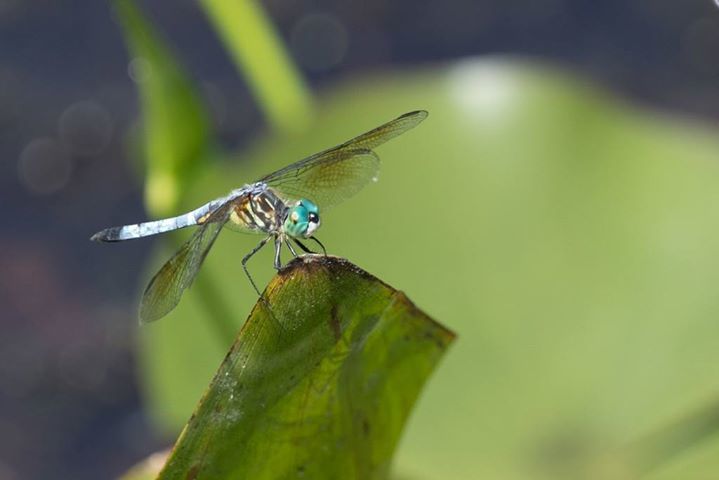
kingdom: Animalia
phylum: Arthropoda
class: Insecta
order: Odonata
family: Libellulidae
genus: Pachydiplax
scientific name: Pachydiplax longipennis
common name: Blue dasher
